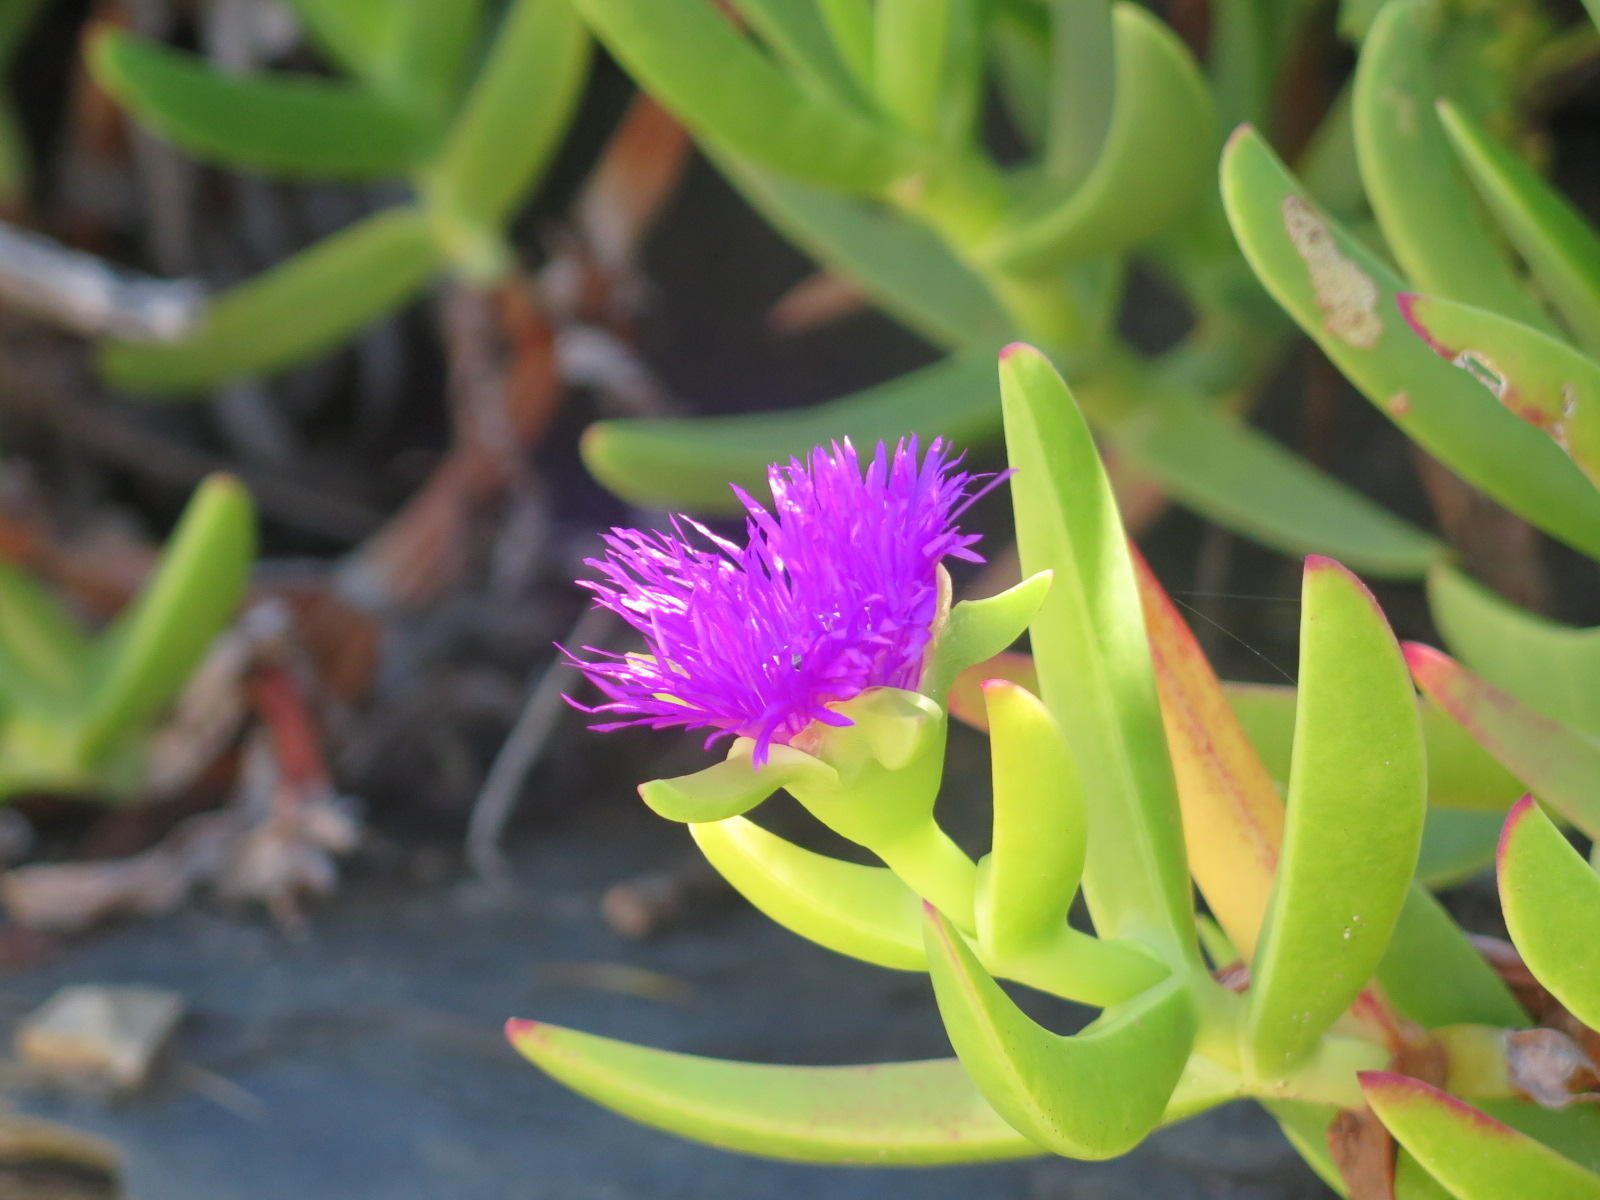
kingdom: Plantae
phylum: Tracheophyta
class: Magnoliopsida
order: Caryophyllales
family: Aizoaceae
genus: Carpobrotus
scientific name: Carpobrotus dimidiatus
